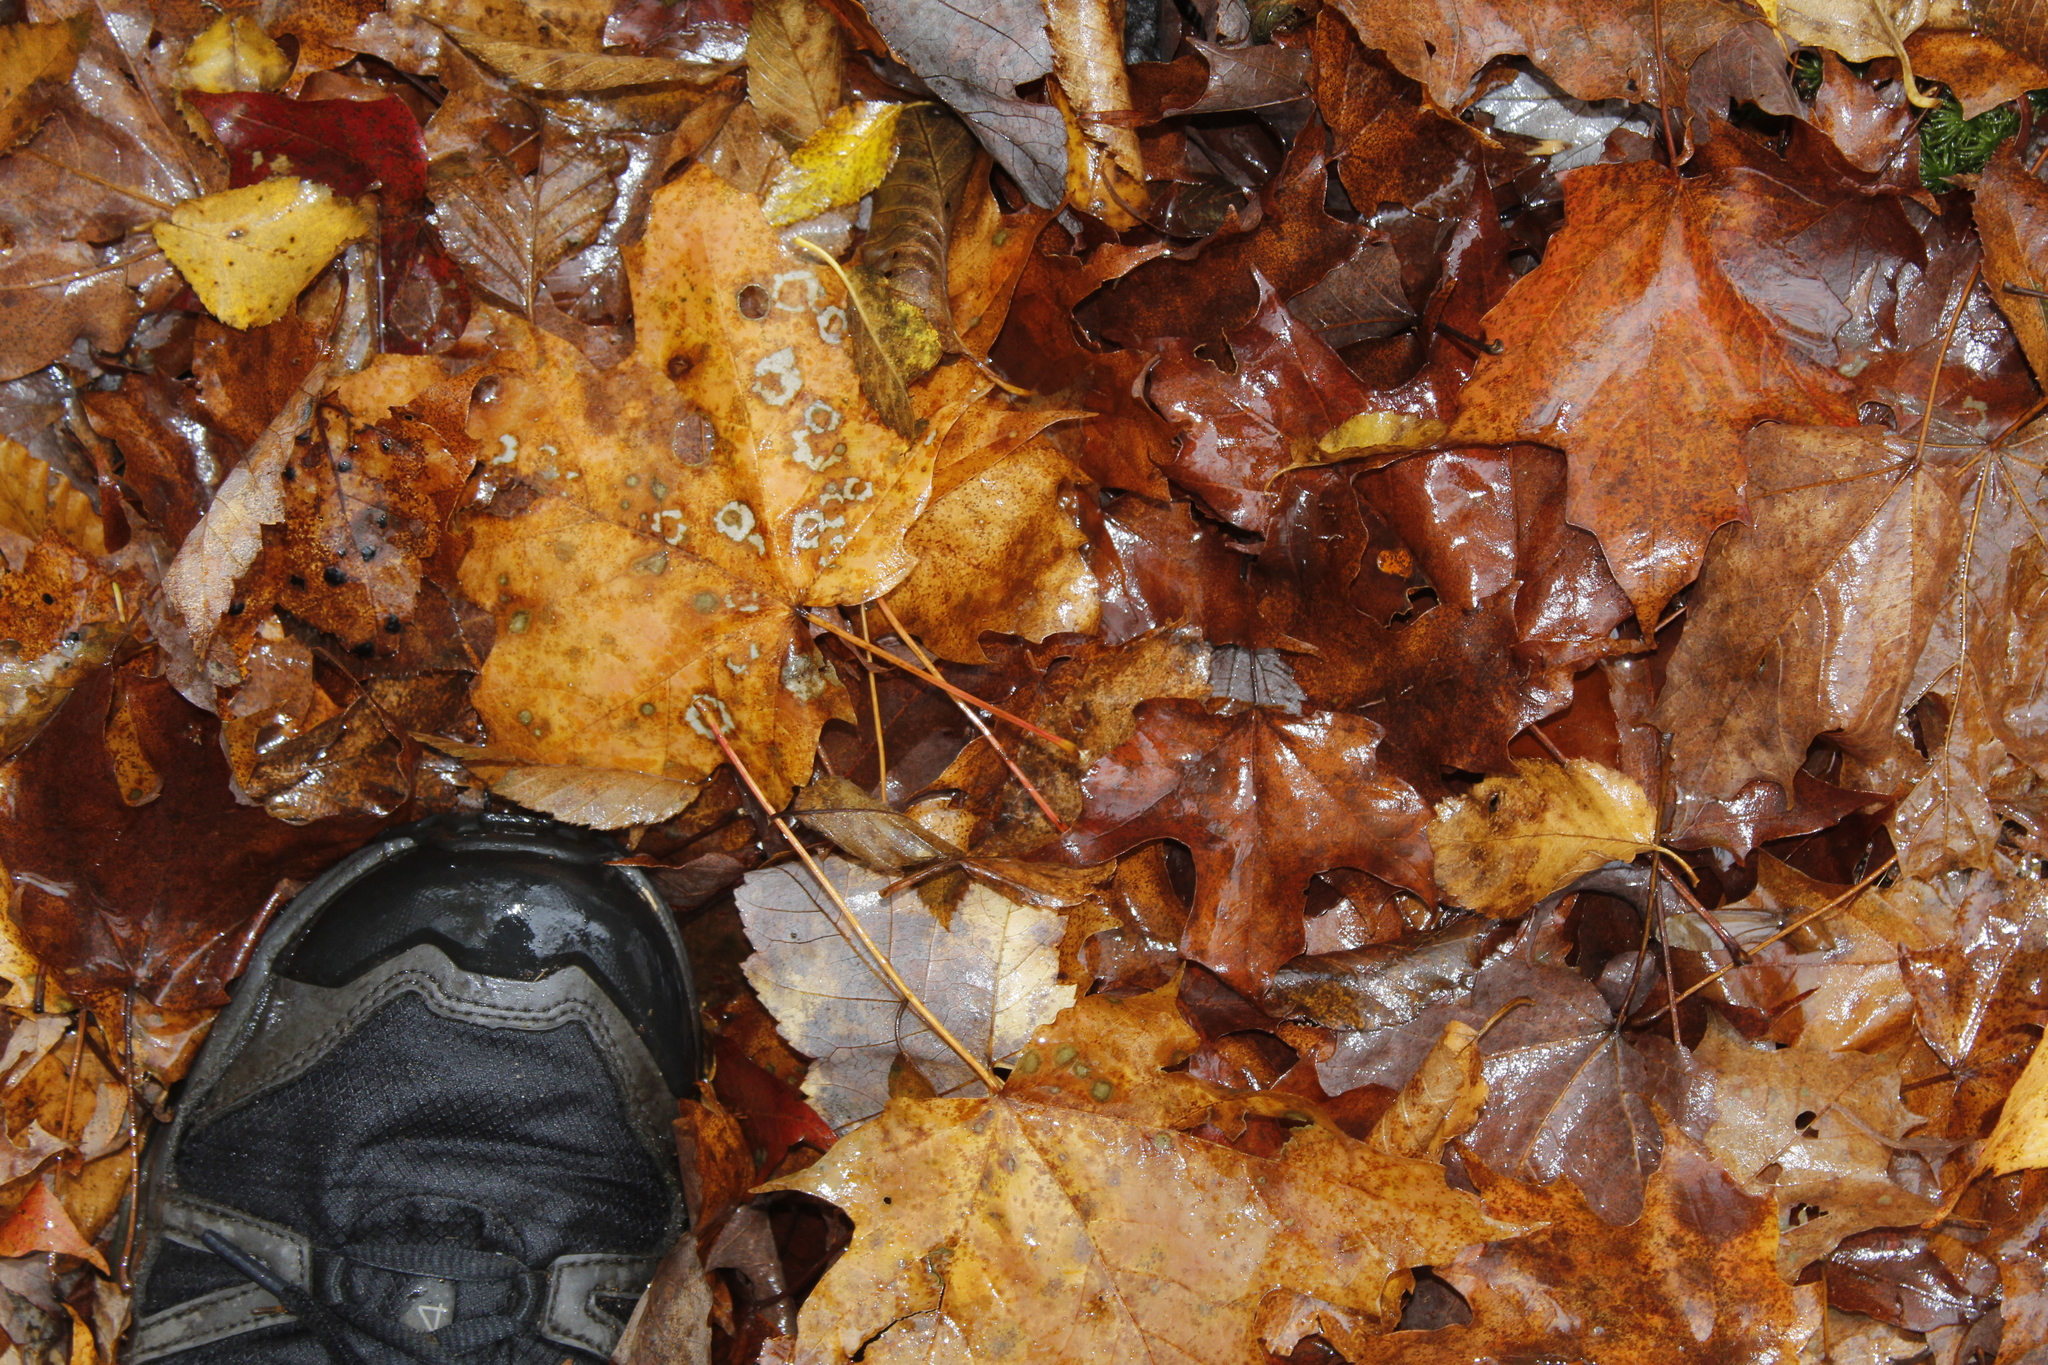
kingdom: Plantae
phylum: Tracheophyta
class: Magnoliopsida
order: Sapindales
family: Sapindaceae
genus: Acer
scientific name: Acer saccharum
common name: Sugar maple
